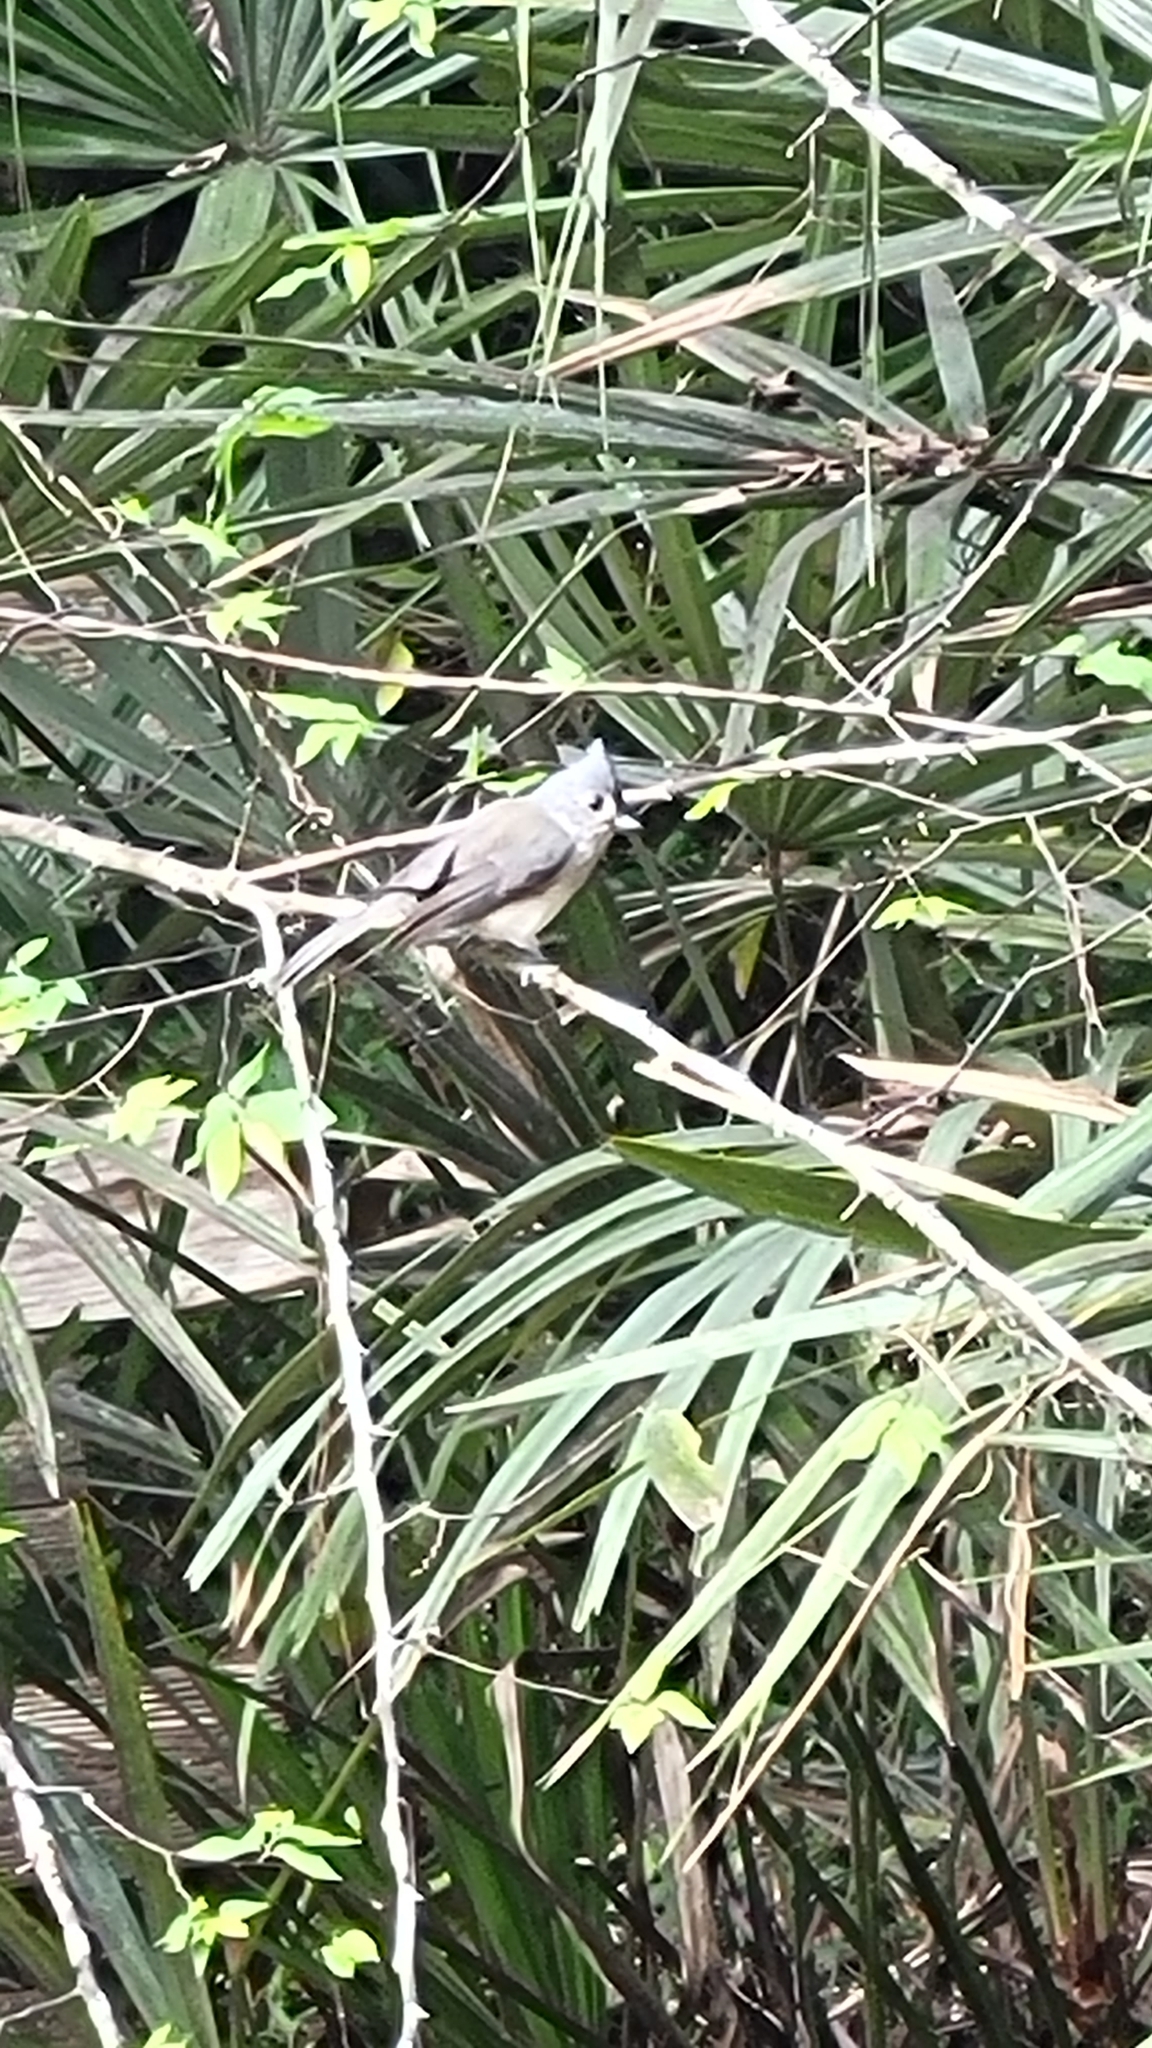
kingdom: Animalia
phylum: Chordata
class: Aves
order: Passeriformes
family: Paridae
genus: Baeolophus
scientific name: Baeolophus bicolor
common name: Tufted titmouse
